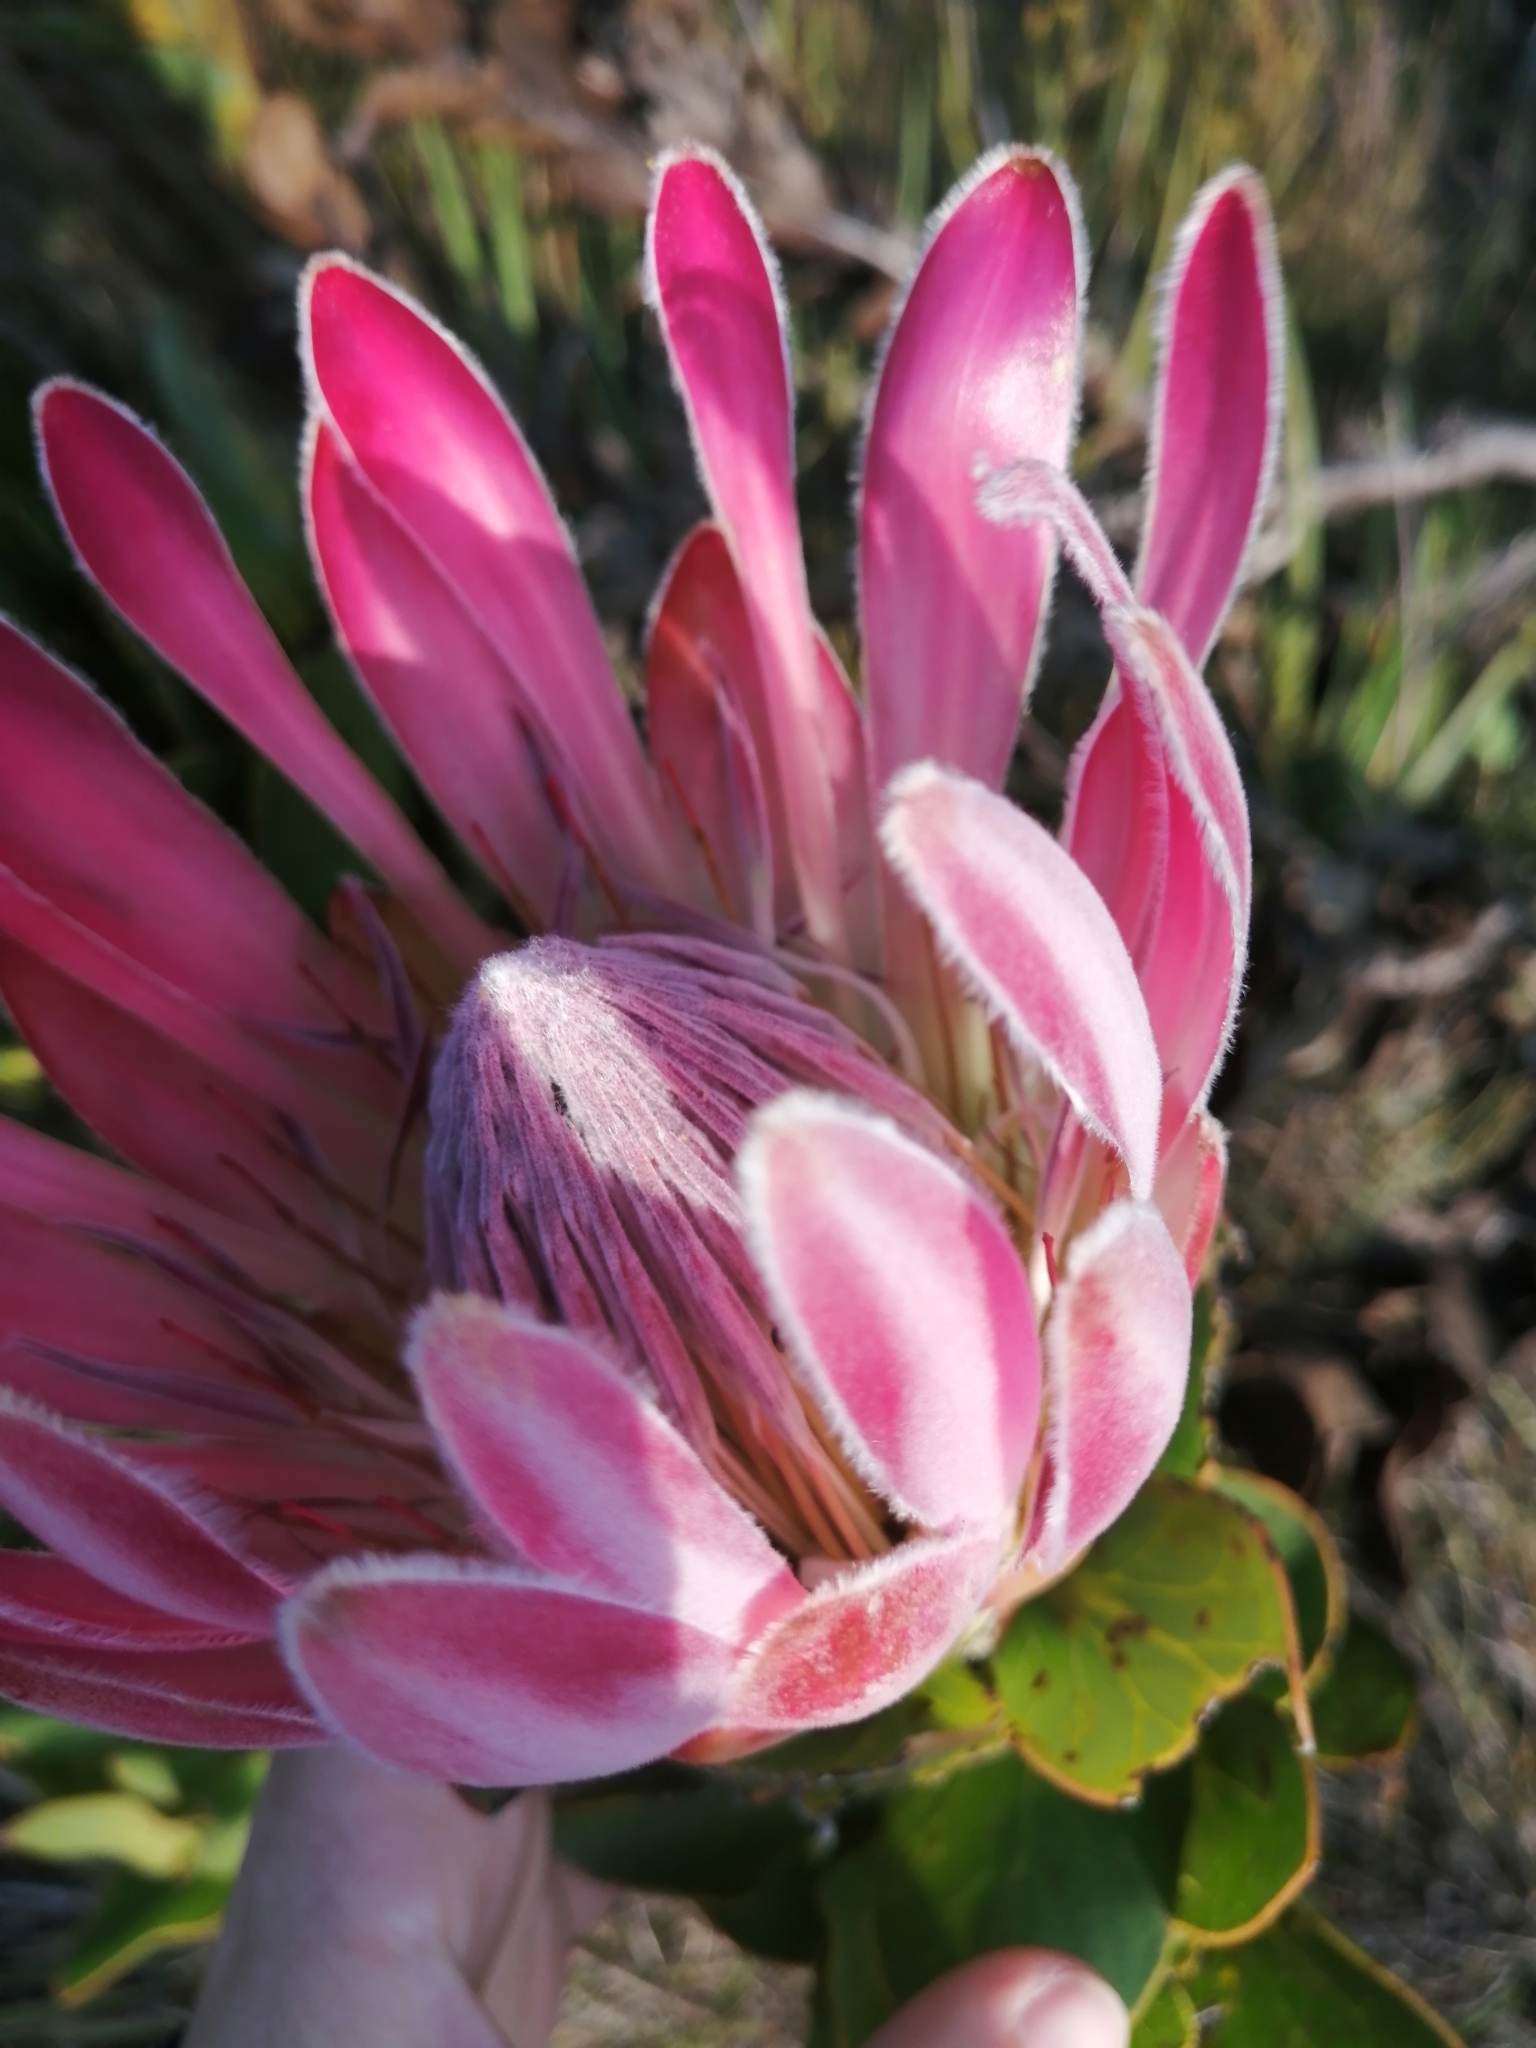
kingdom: Plantae
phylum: Tracheophyta
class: Magnoliopsida
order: Proteales
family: Proteaceae
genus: Protea
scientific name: Protea compacta
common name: Bot river protea
